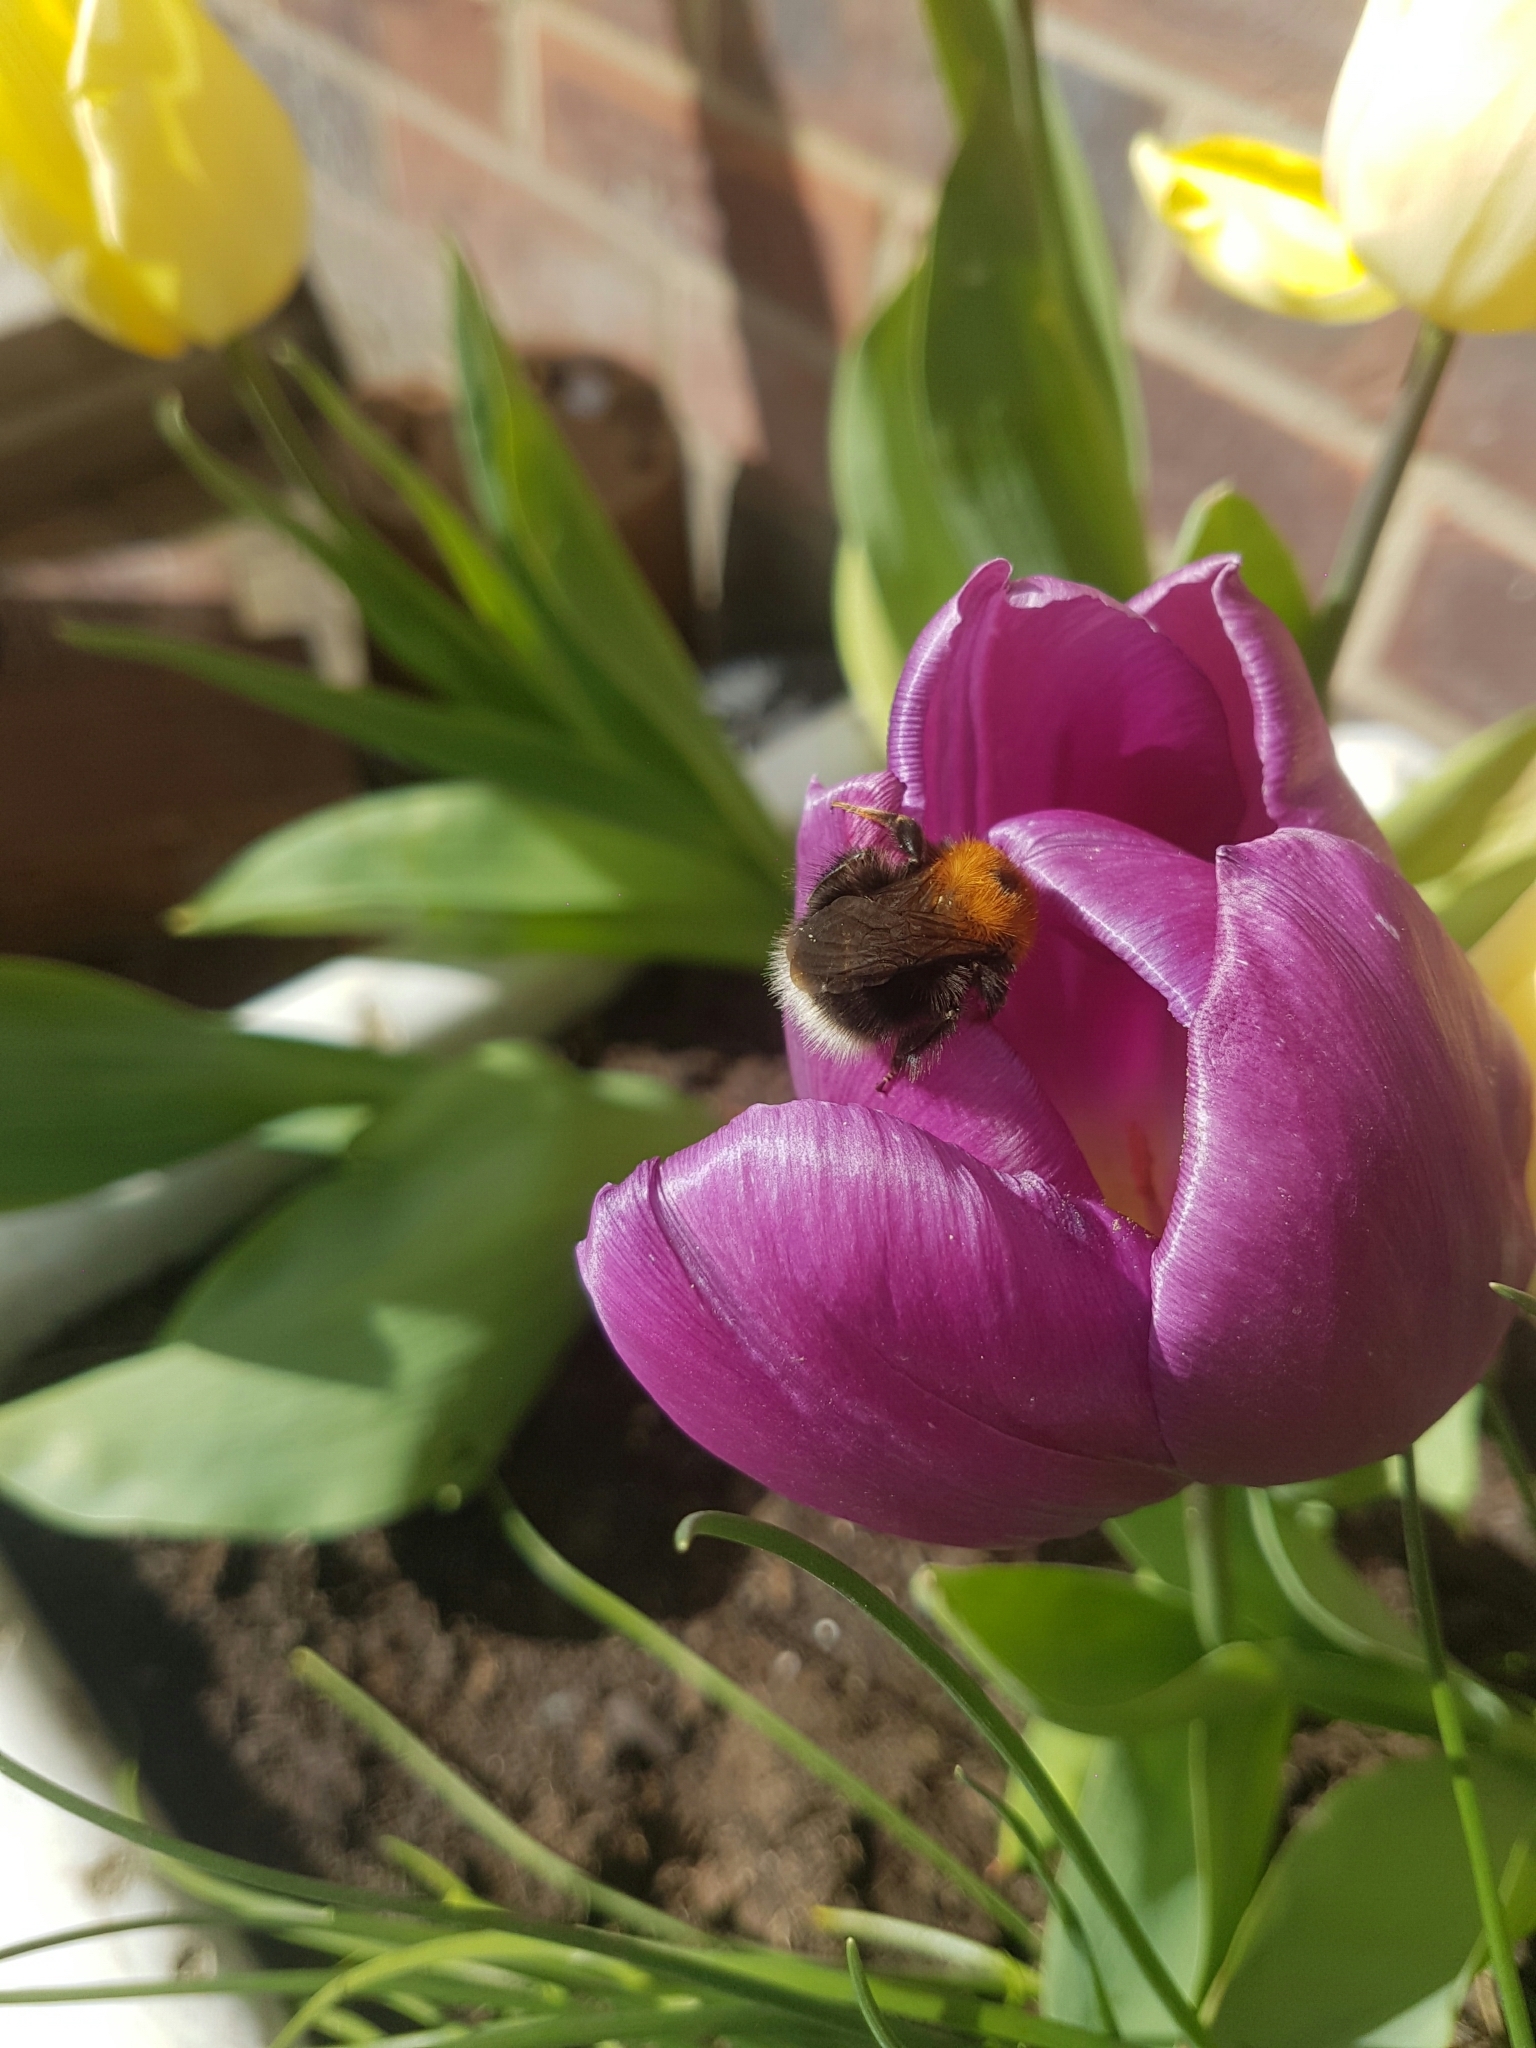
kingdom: Animalia
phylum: Arthropoda
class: Insecta
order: Hymenoptera
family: Apidae
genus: Bombus
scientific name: Bombus hypnorum
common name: New garden bumblebee
